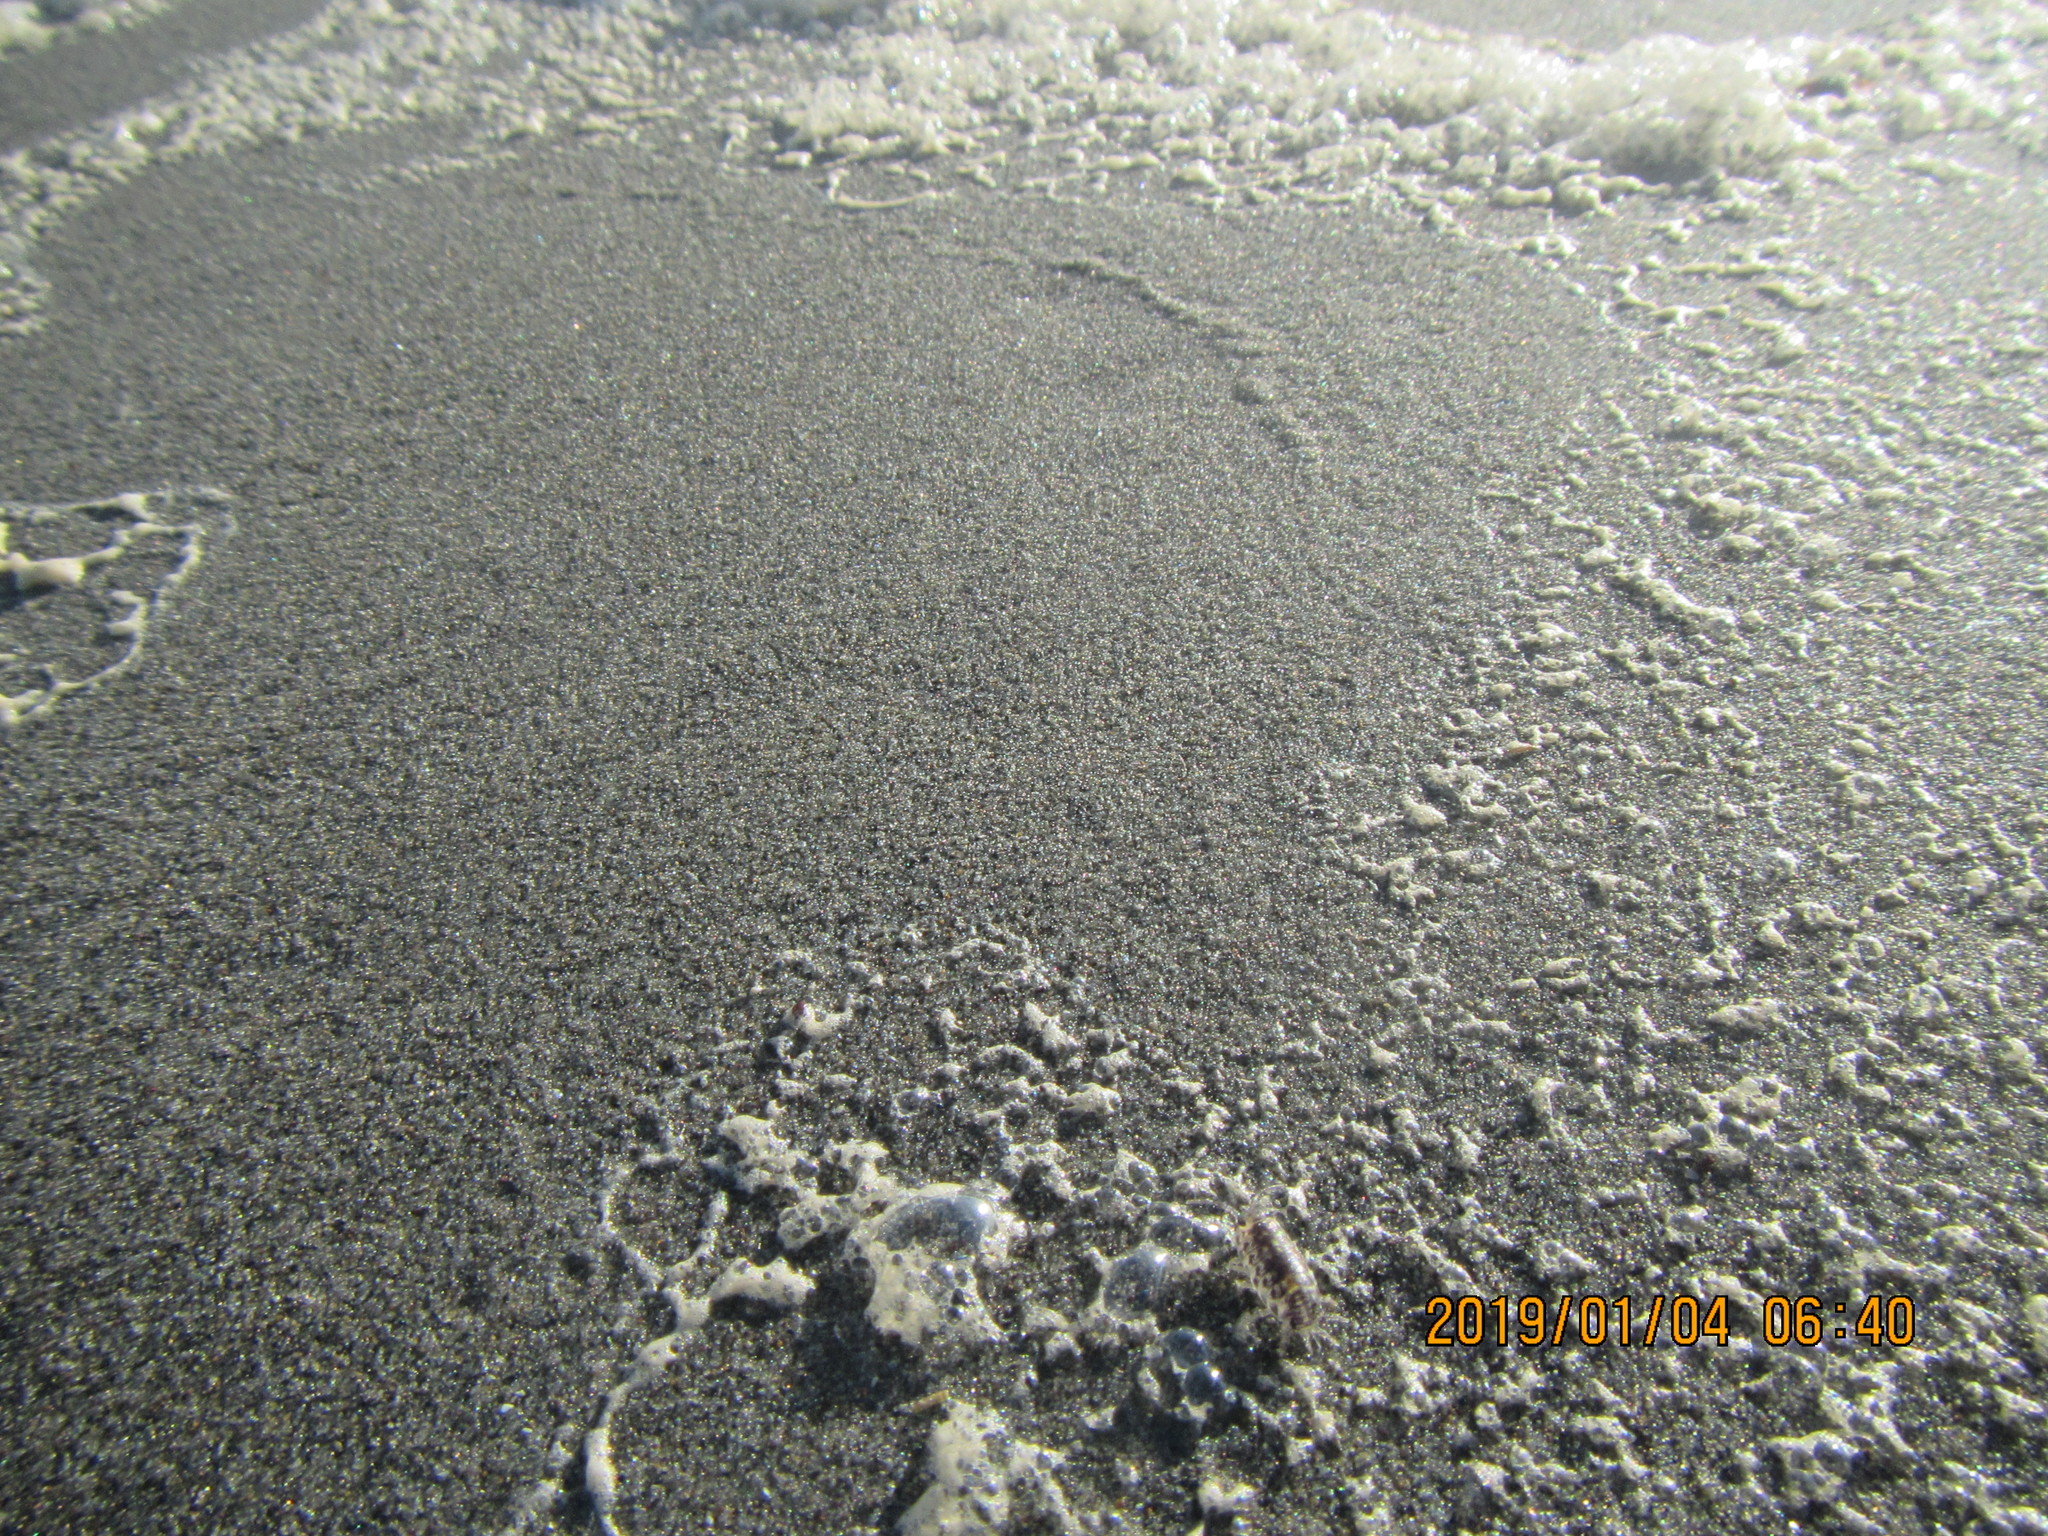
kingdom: Animalia
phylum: Arthropoda
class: Malacostraca
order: Isopoda
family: Scyphacidae
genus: Scyphax
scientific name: Scyphax ornatus
